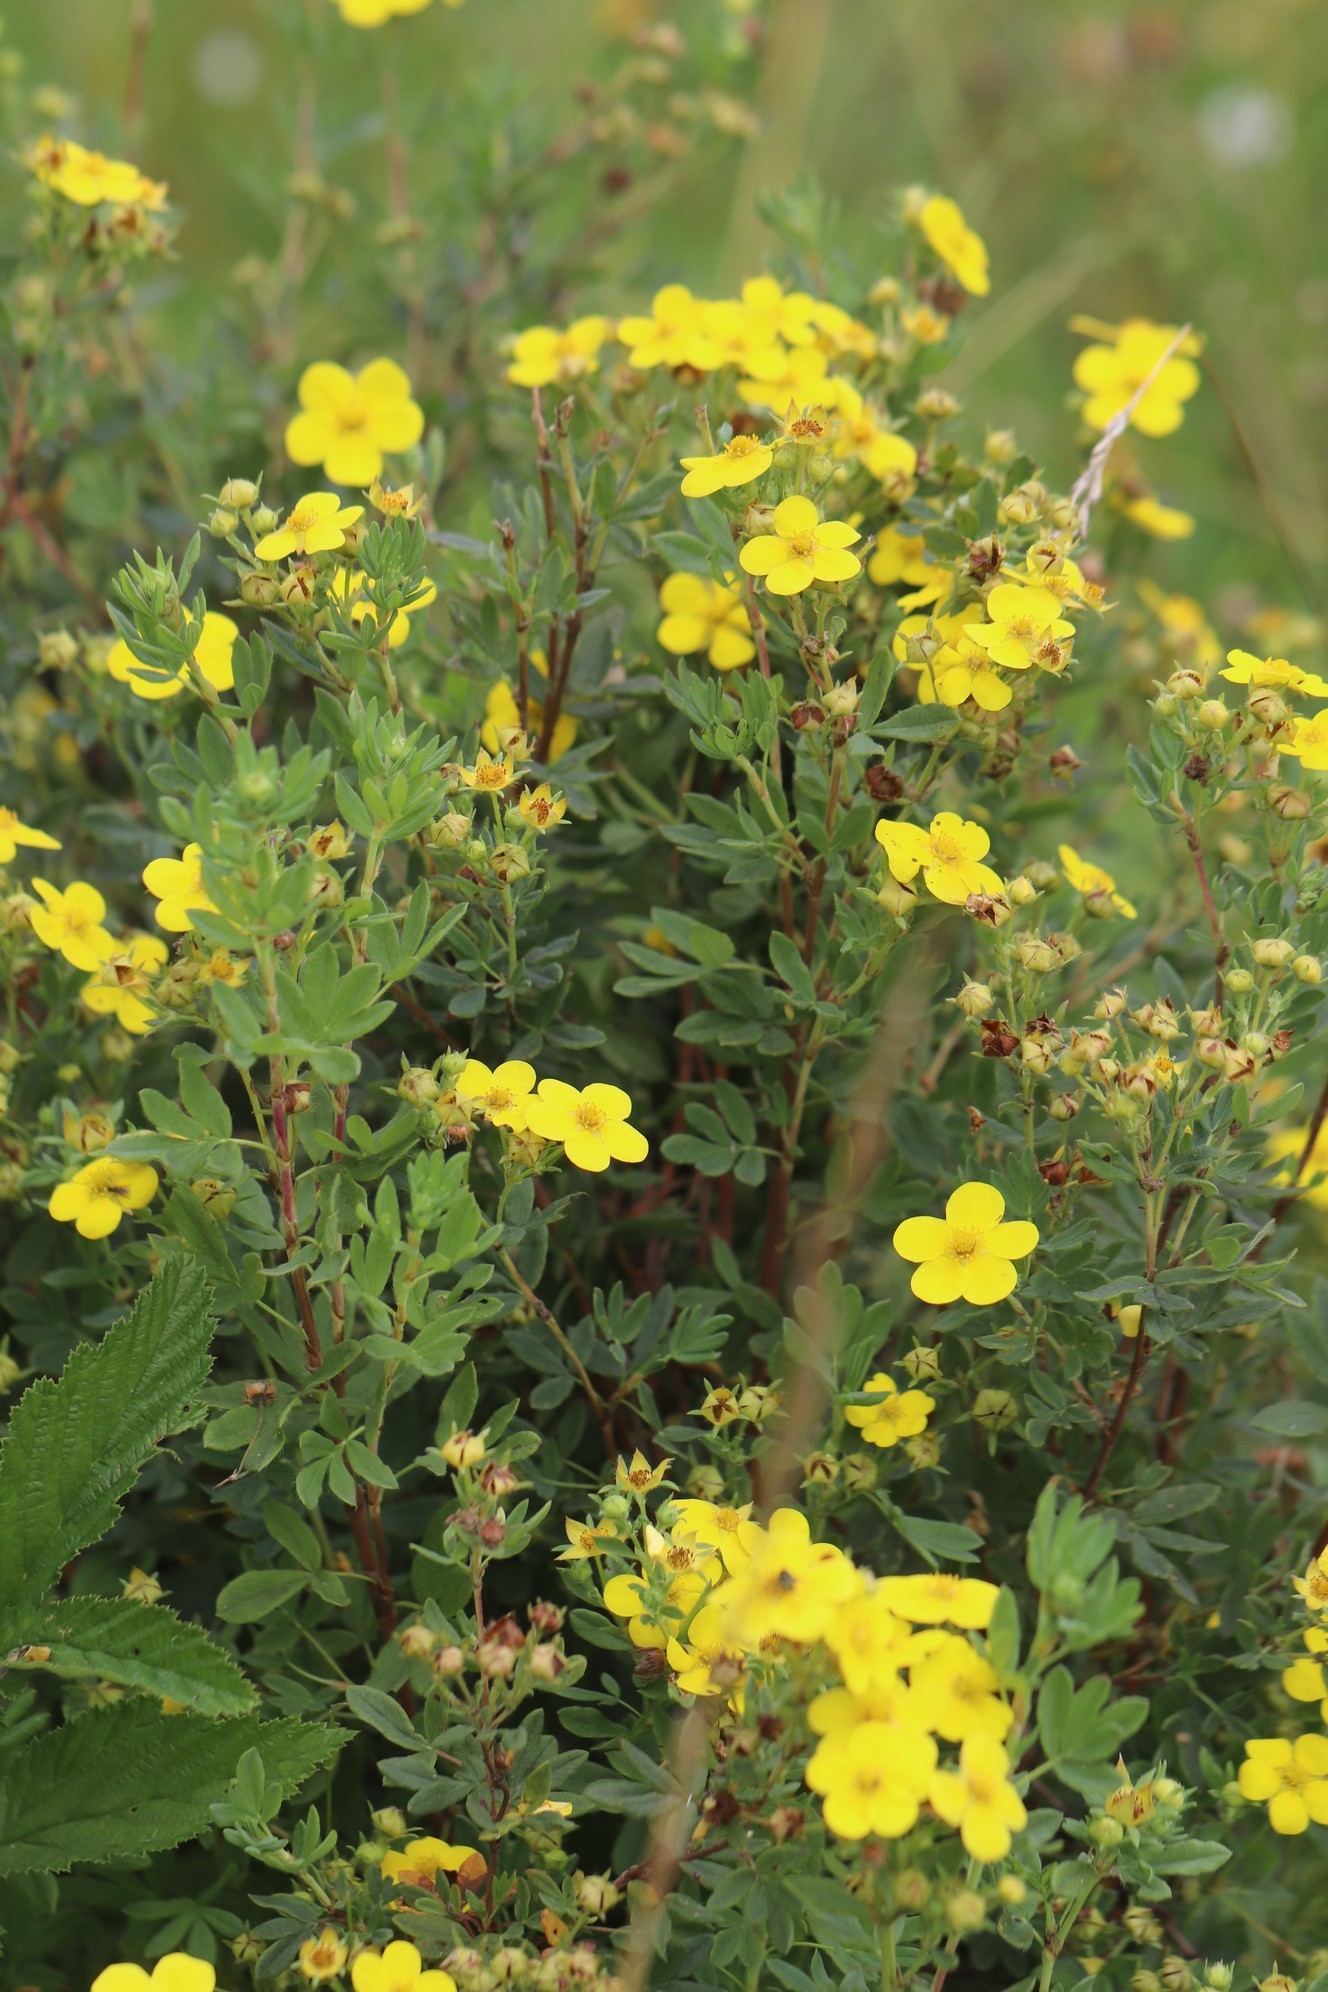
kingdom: Plantae
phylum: Tracheophyta
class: Magnoliopsida
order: Rosales
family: Rosaceae
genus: Dasiphora
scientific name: Dasiphora fruticosa
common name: Shrubby cinquefoil
